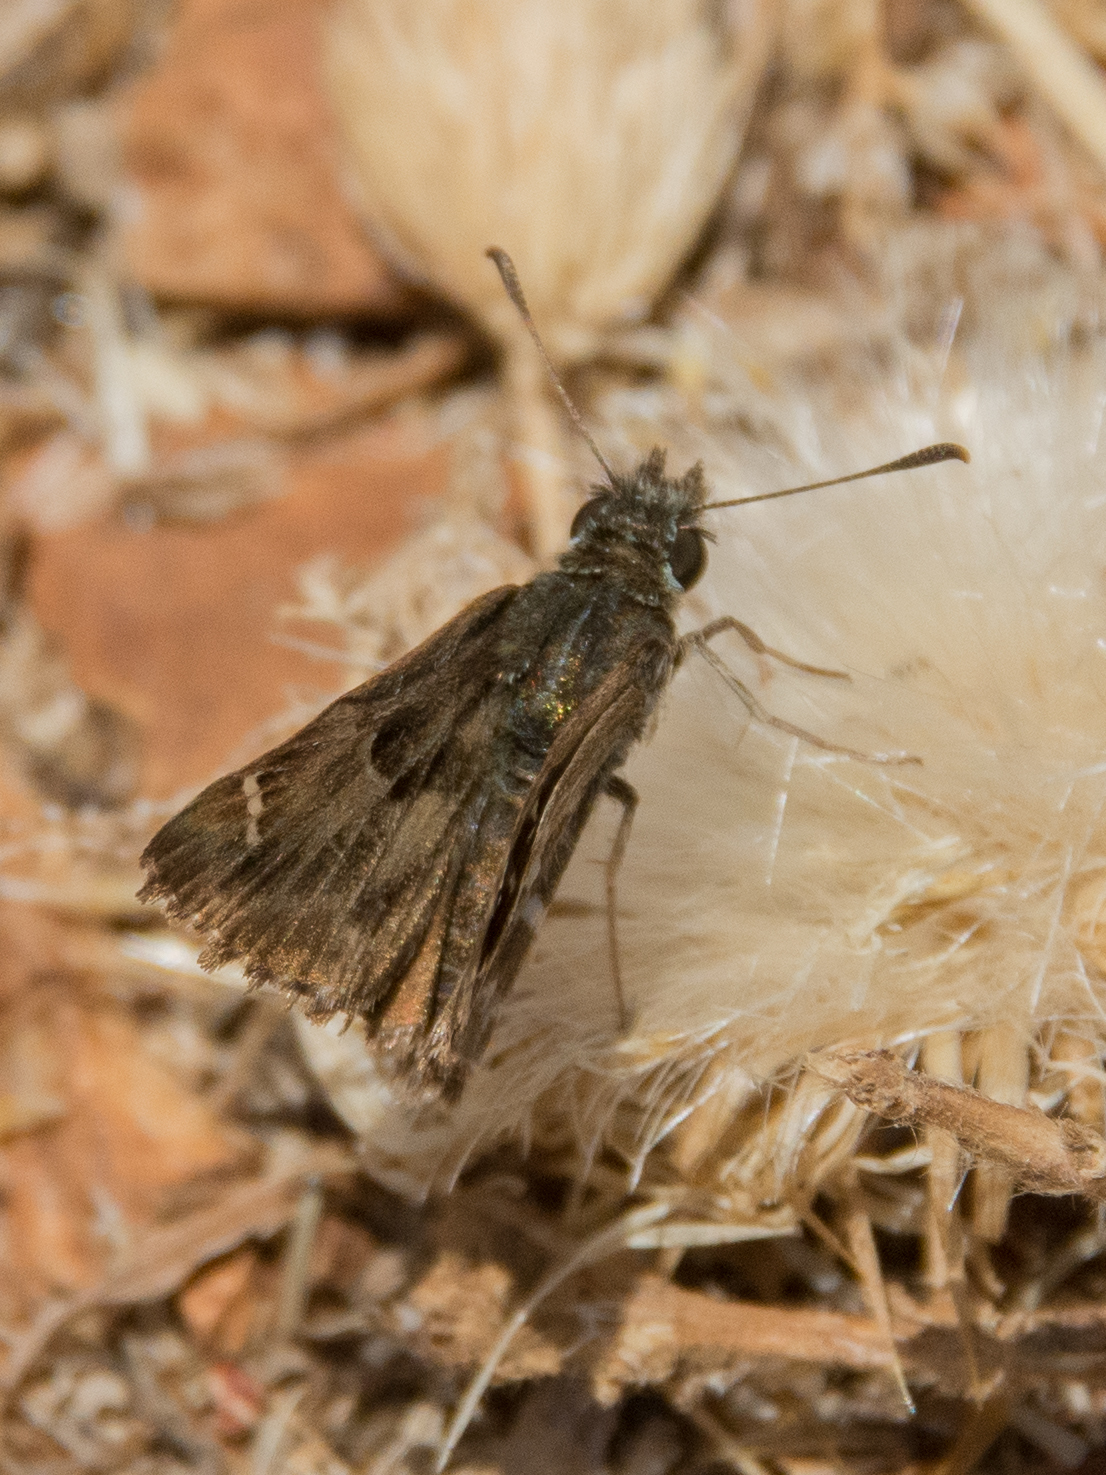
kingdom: Animalia
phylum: Arthropoda
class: Insecta
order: Lepidoptera
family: Hesperiidae
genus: Carcharodus
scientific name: Carcharodus alceae
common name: Mallow skipper
